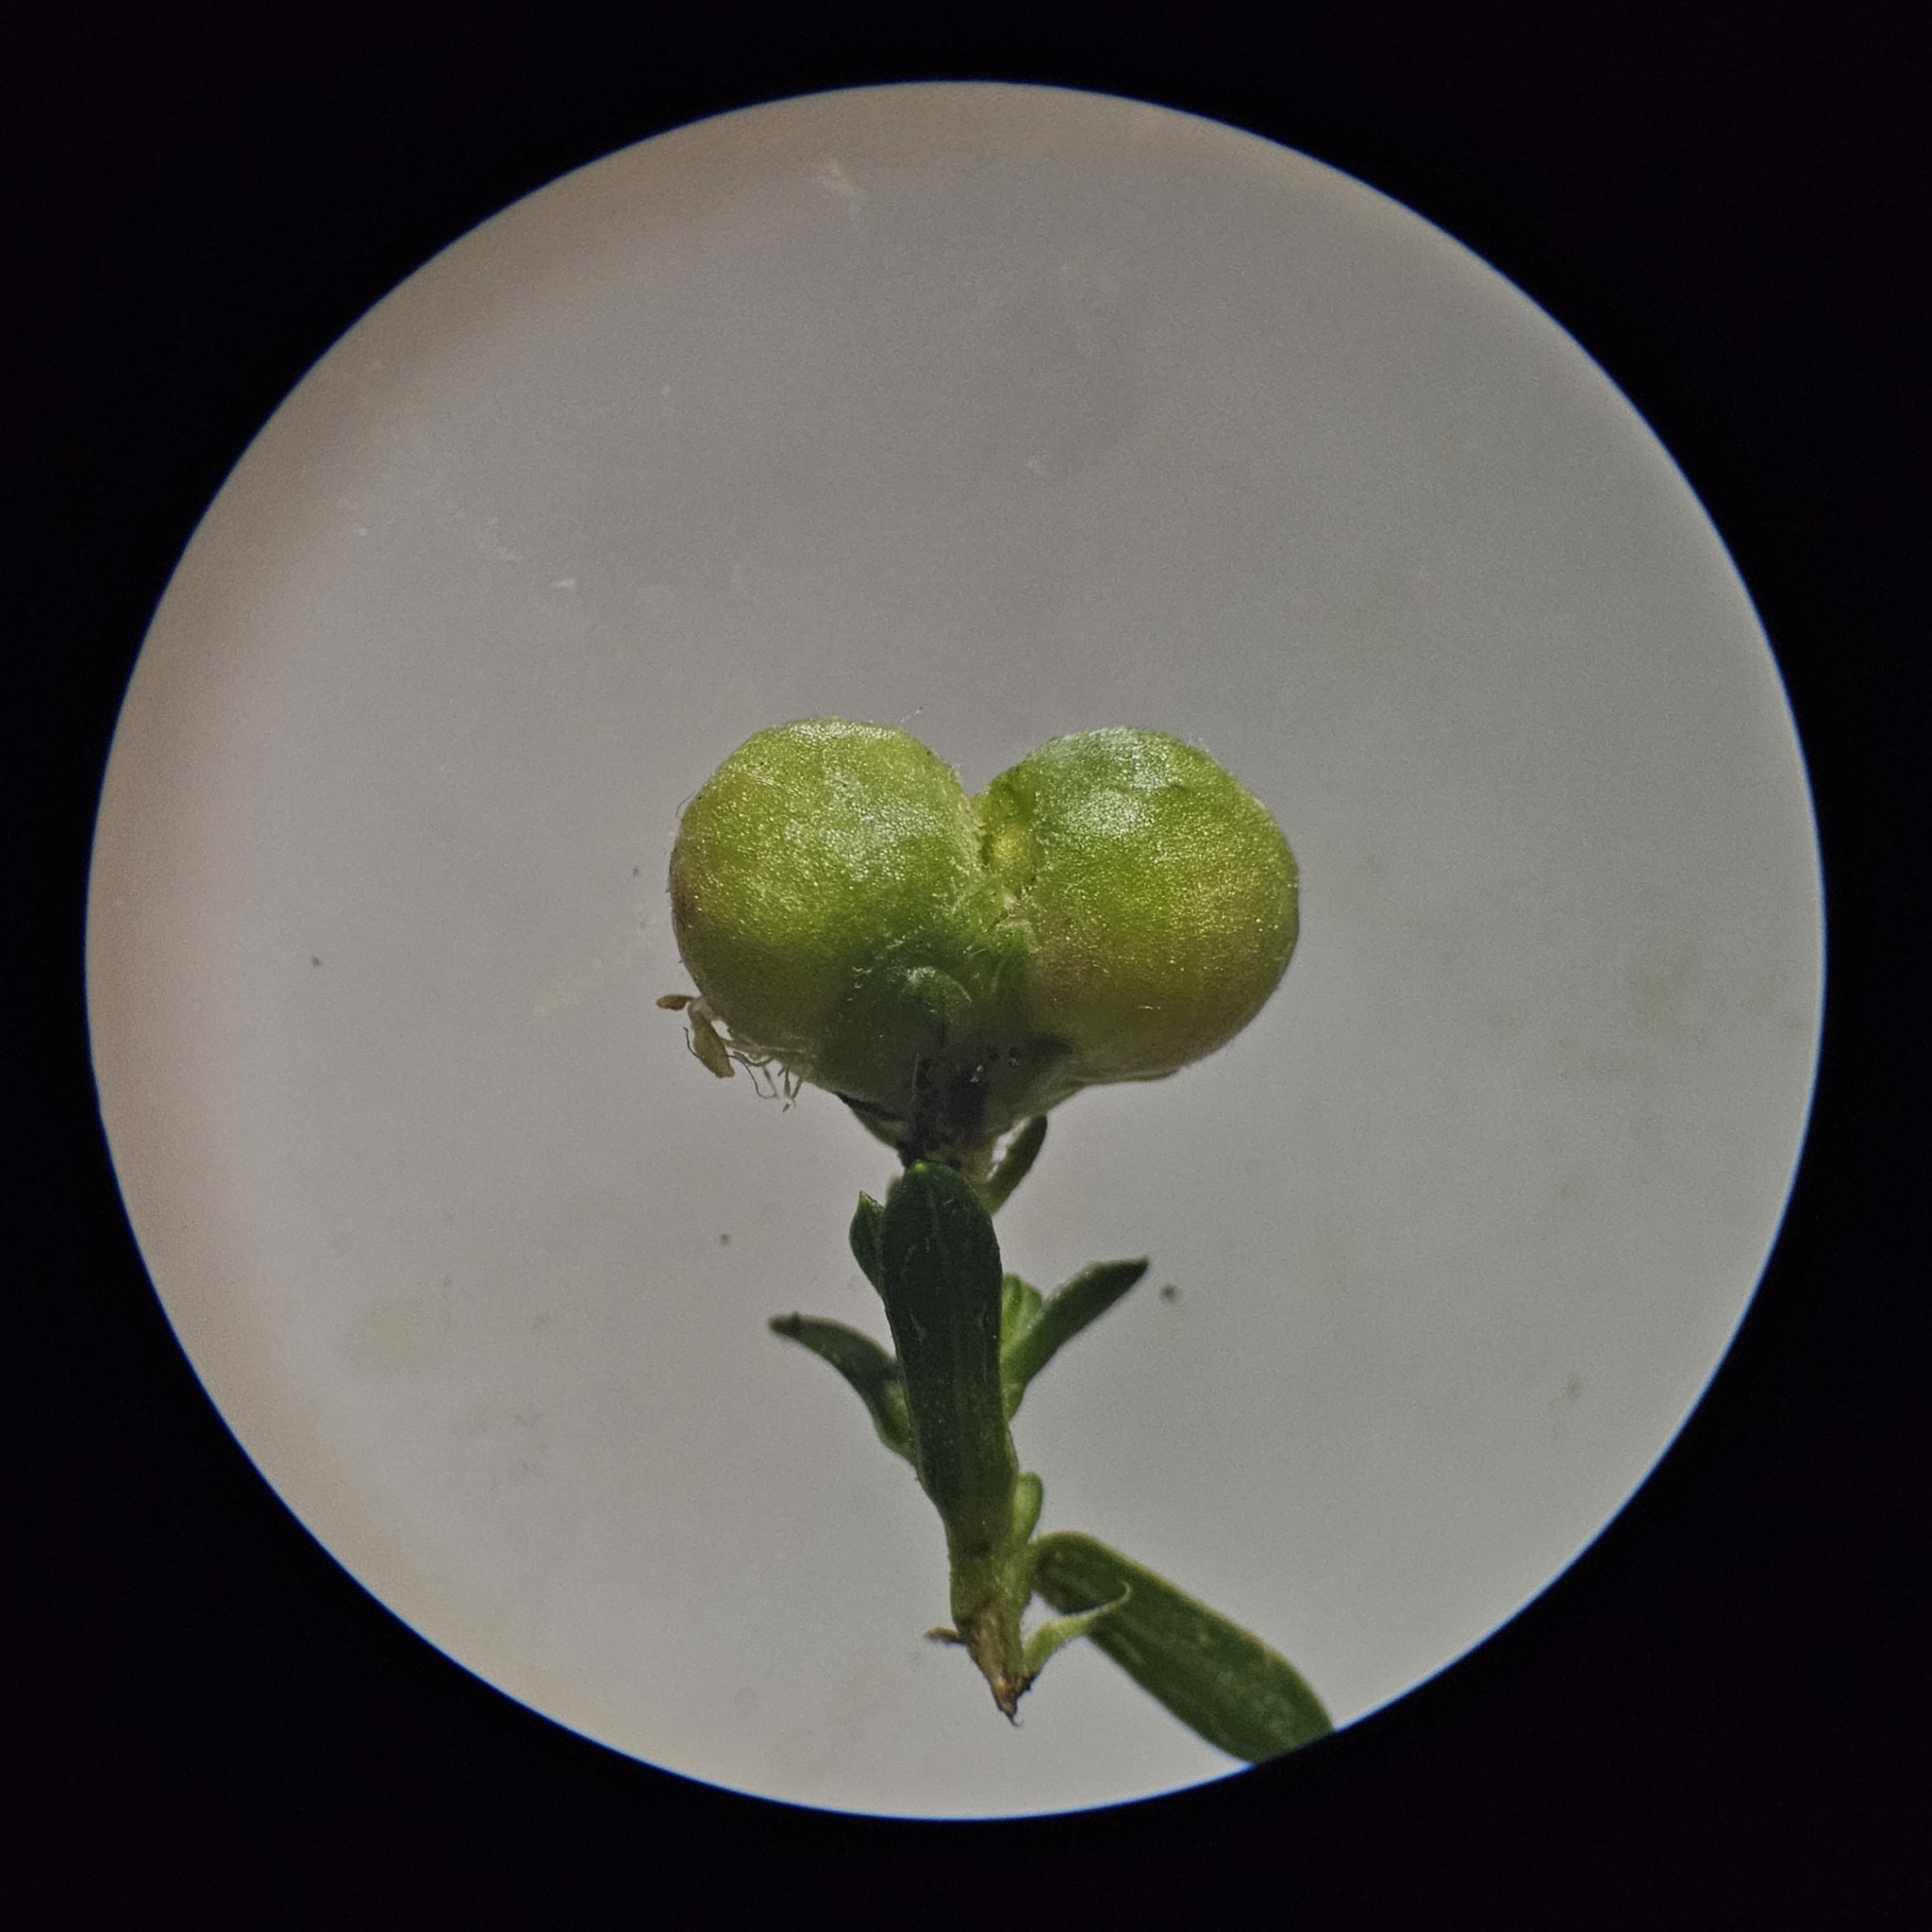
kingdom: Animalia
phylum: Arthropoda
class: Insecta
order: Diptera
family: Cecidomyiidae
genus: Schizomyia
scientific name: Schizomyia racemicola
